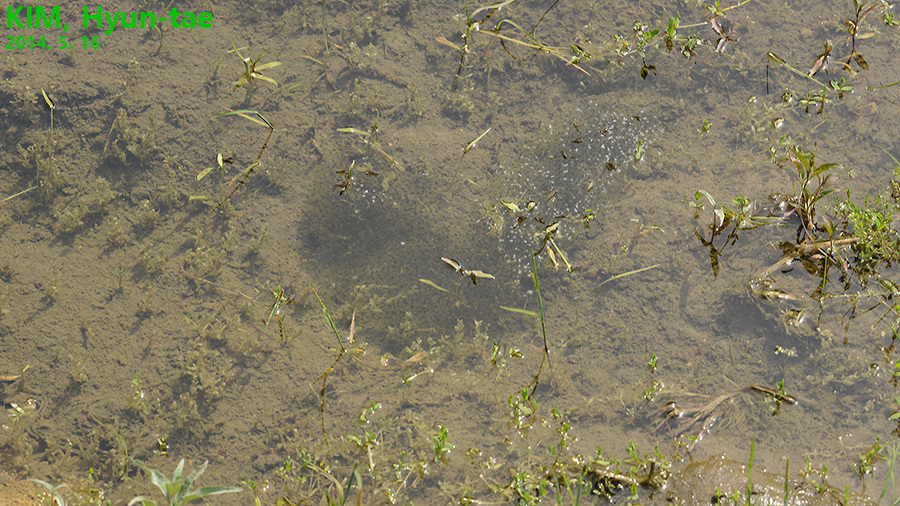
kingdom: Animalia
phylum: Chordata
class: Amphibia
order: Anura
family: Ranidae
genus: Pelophylax
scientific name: Pelophylax nigromaculatus
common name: Black-spotted pond frog
